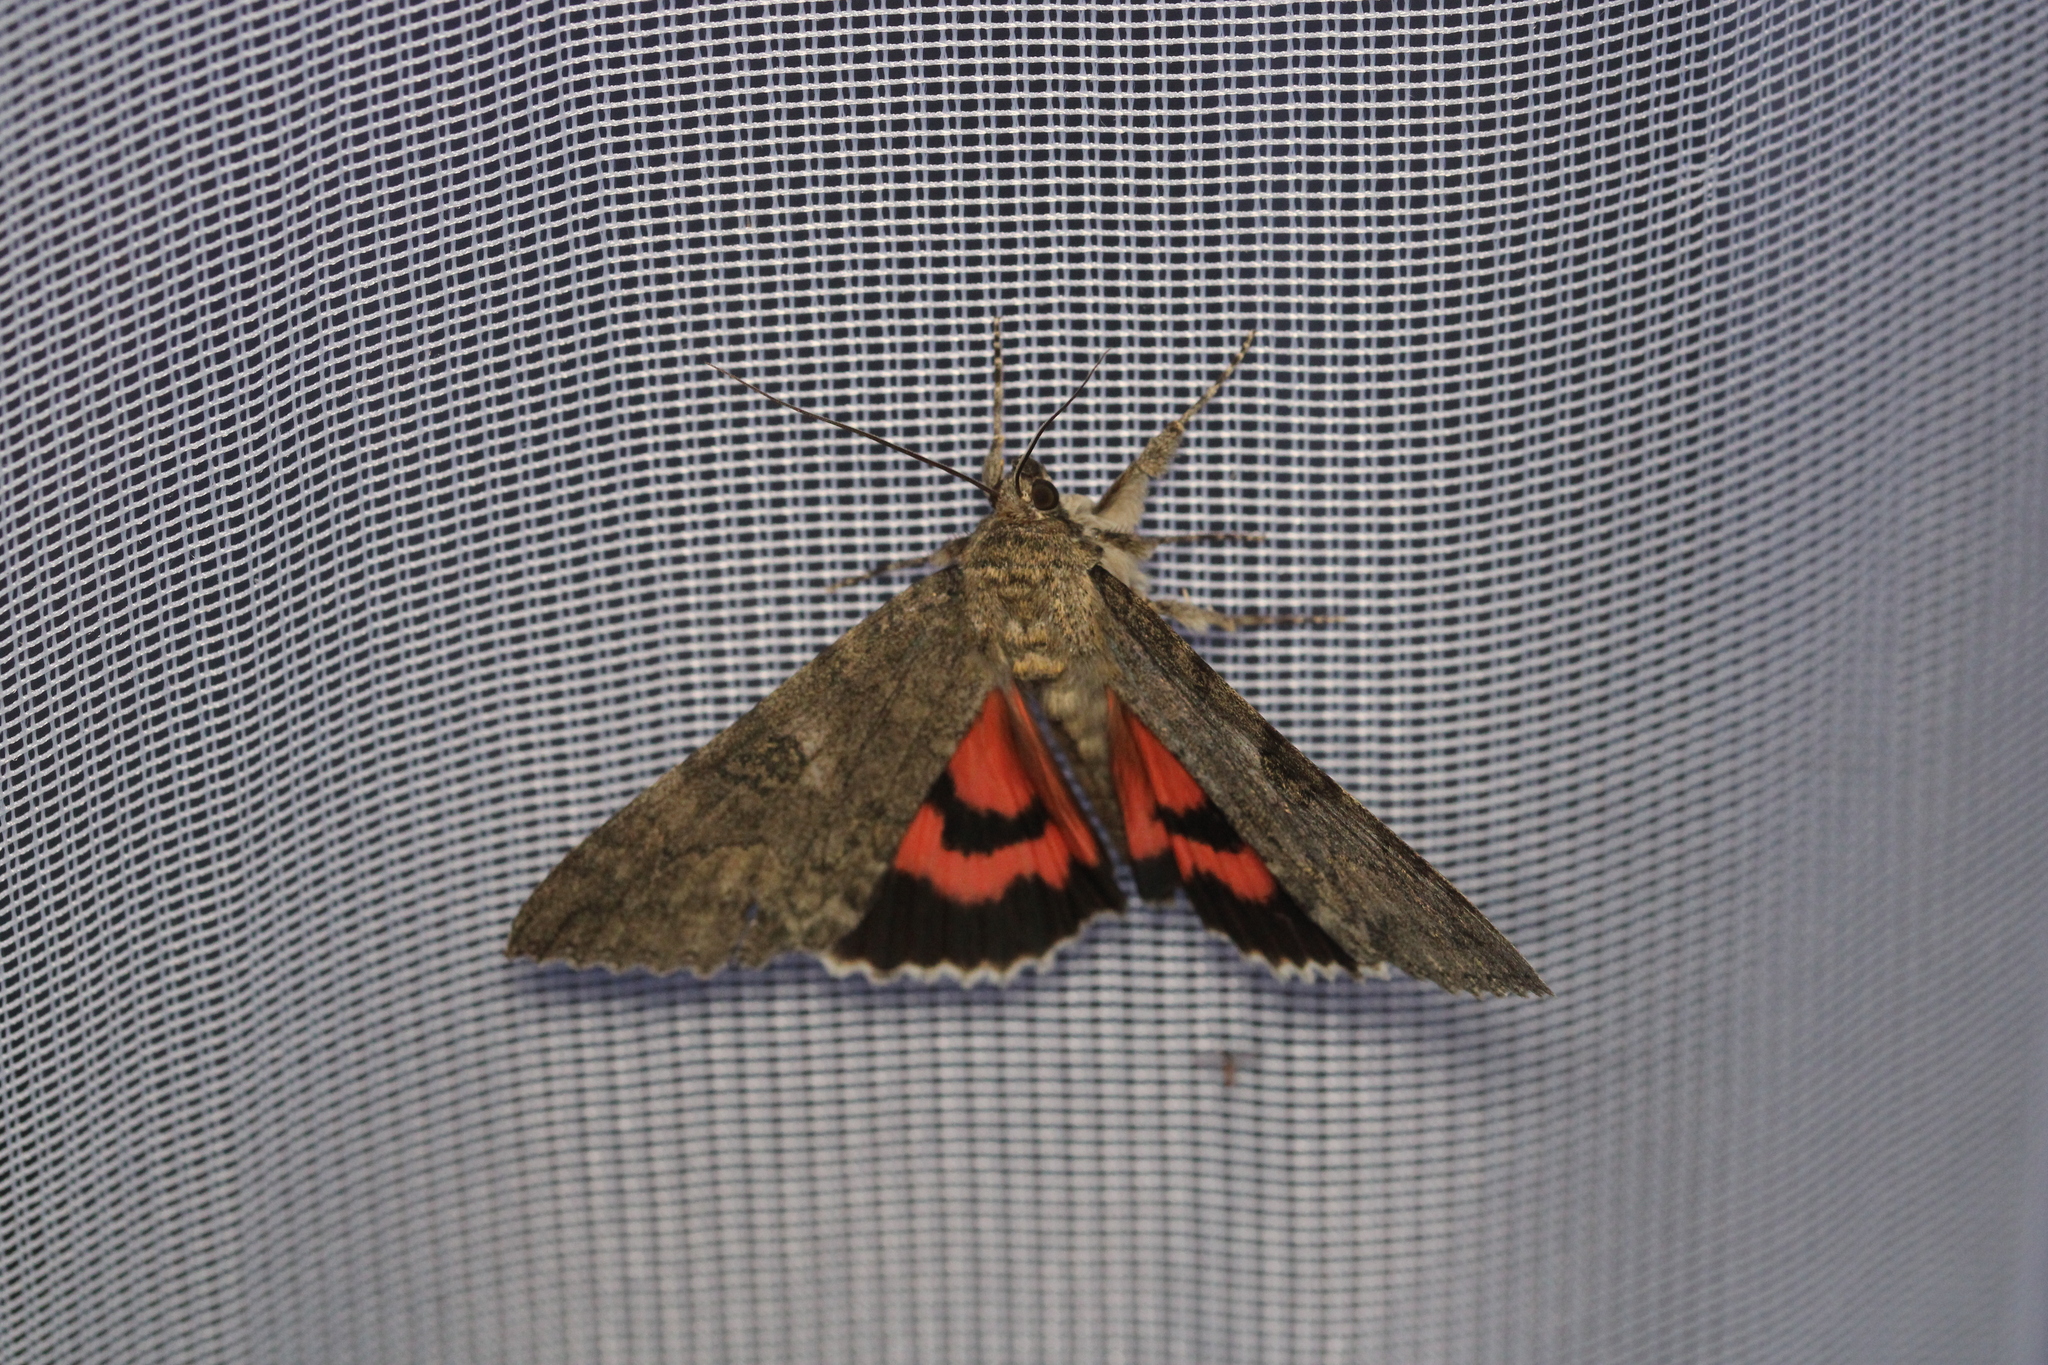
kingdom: Animalia
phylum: Arthropoda
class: Insecta
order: Lepidoptera
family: Erebidae
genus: Catocala
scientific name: Catocala nupta
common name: Red underwing
